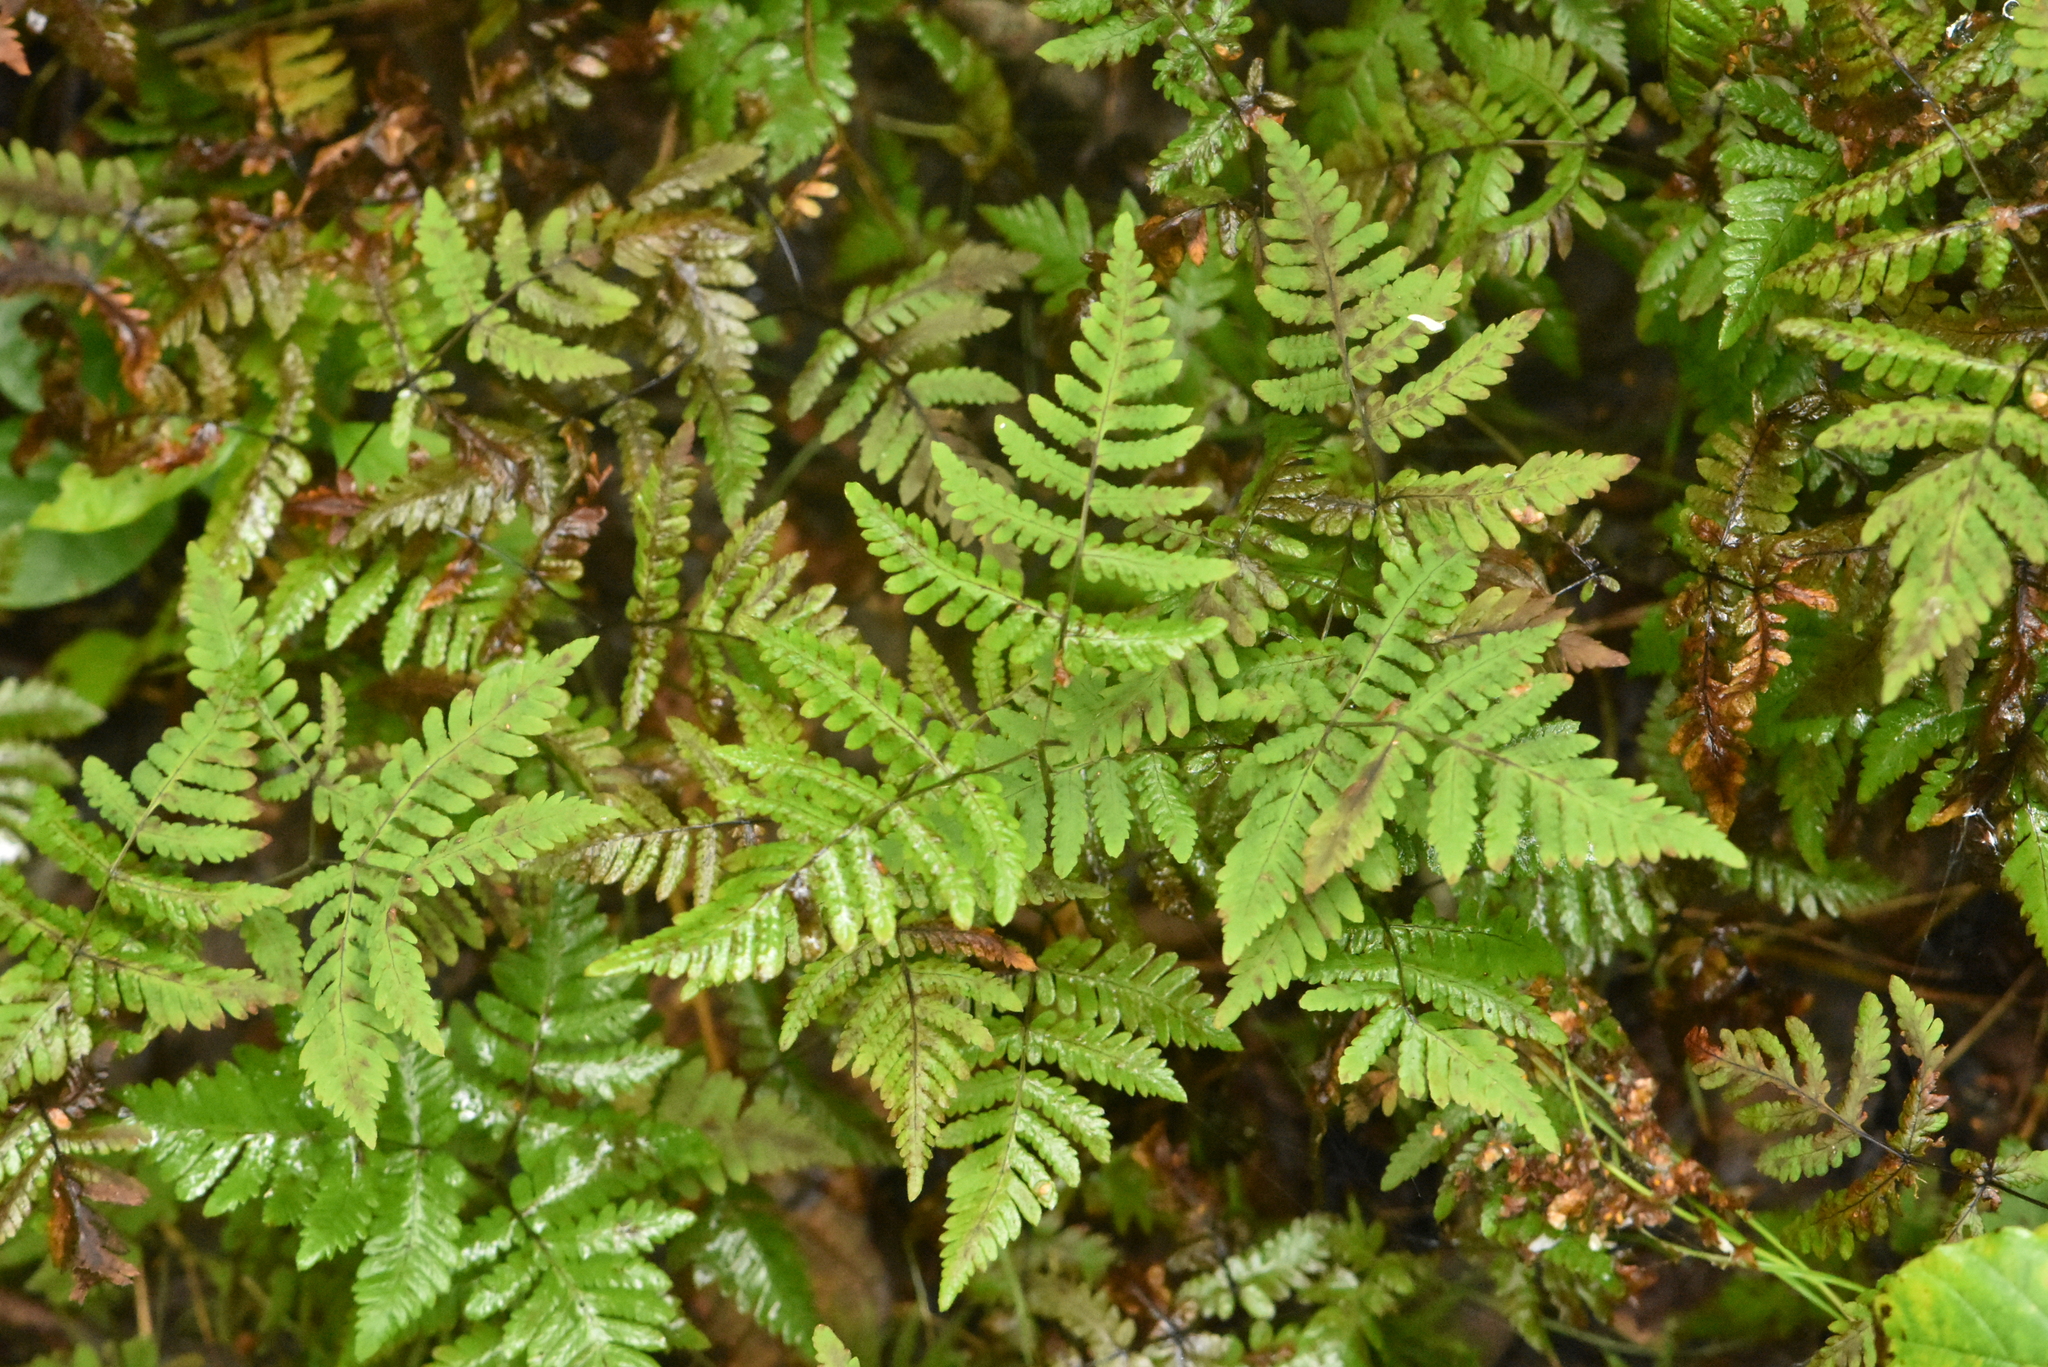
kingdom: Plantae
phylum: Tracheophyta
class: Polypodiopsida
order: Polypodiales
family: Cystopteridaceae
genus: Gymnocarpium
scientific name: Gymnocarpium dryopteris
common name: Oak fern
